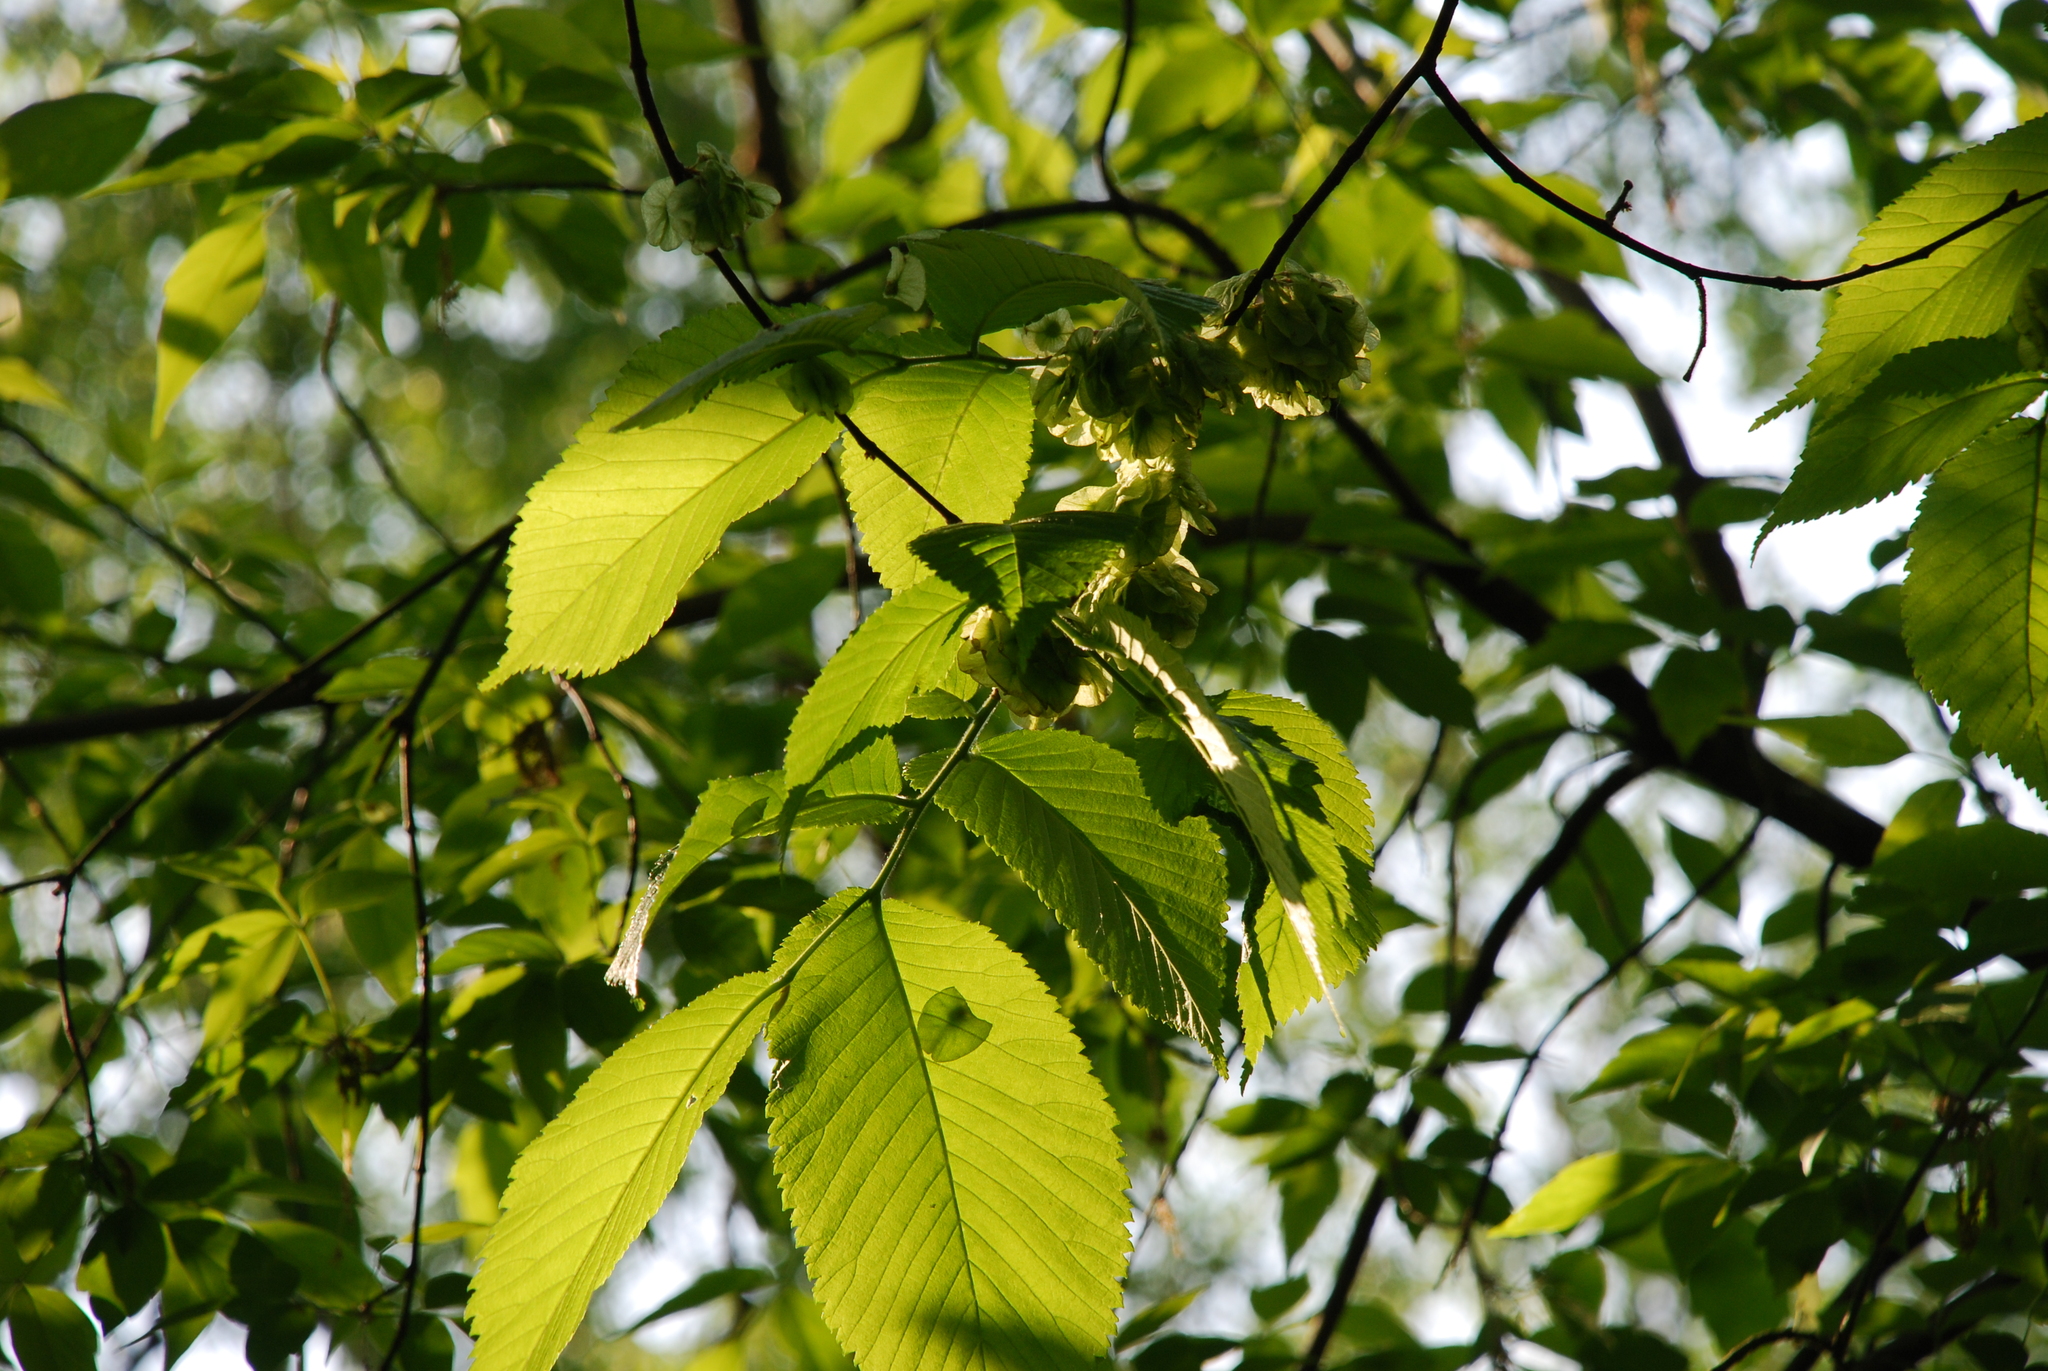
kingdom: Plantae
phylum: Tracheophyta
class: Magnoliopsida
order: Rosales
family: Ulmaceae
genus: Ulmus
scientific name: Ulmus glabra
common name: Wych elm
